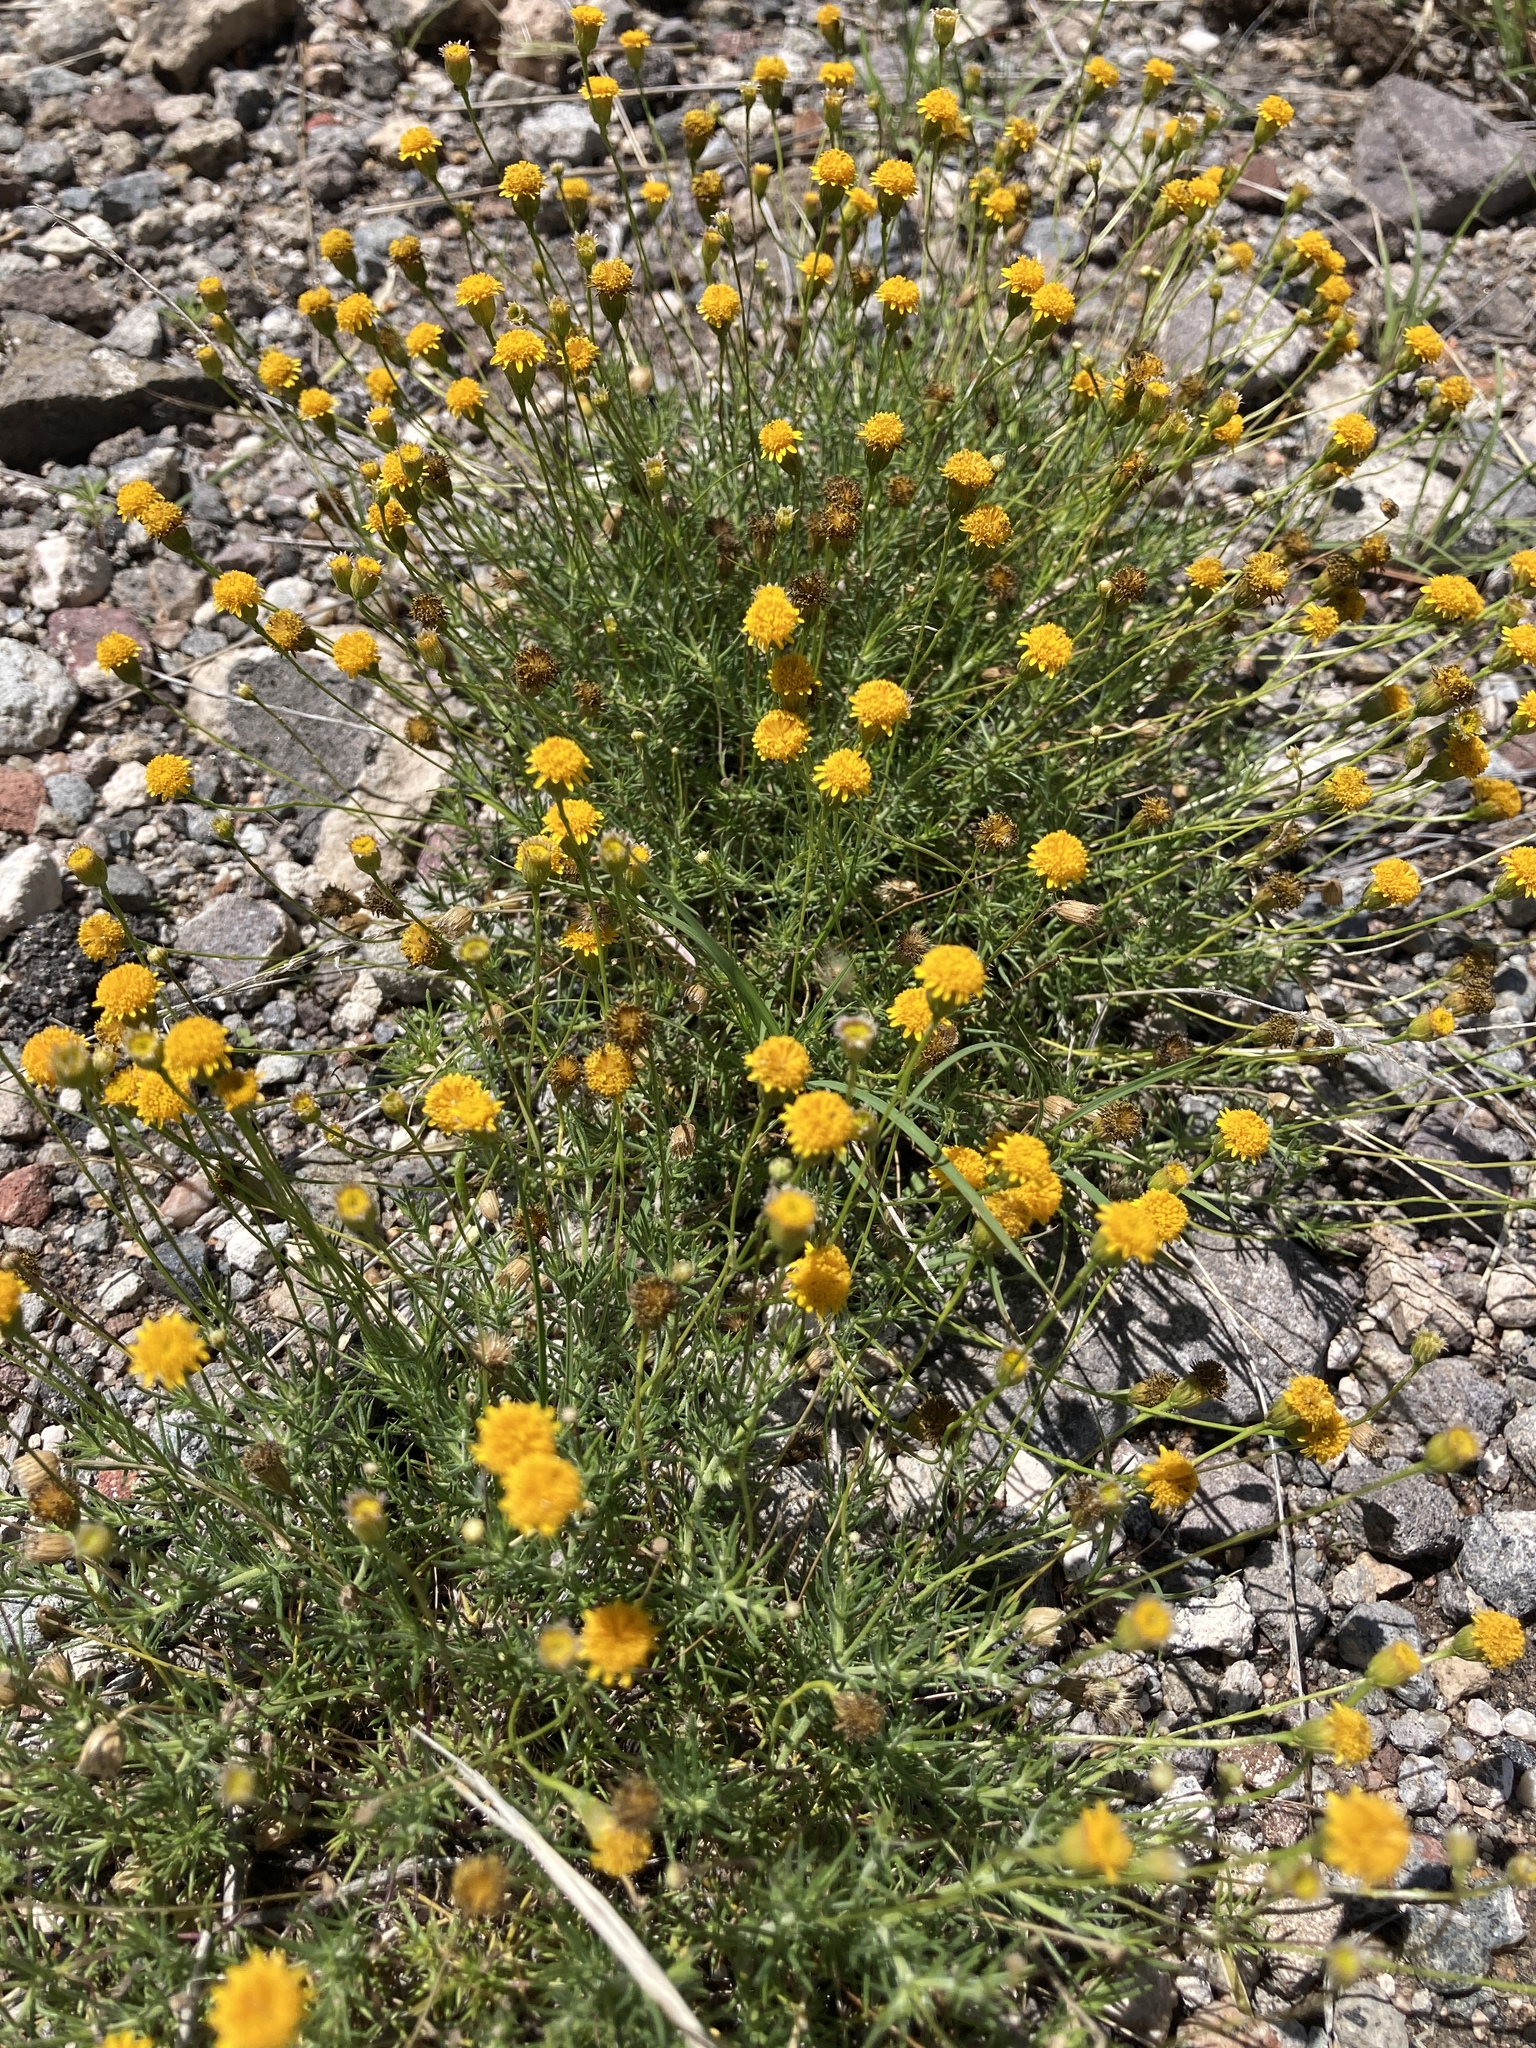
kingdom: Plantae
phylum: Tracheophyta
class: Magnoliopsida
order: Asterales
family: Asteraceae
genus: Thymophylla
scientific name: Thymophylla pentachaeta
